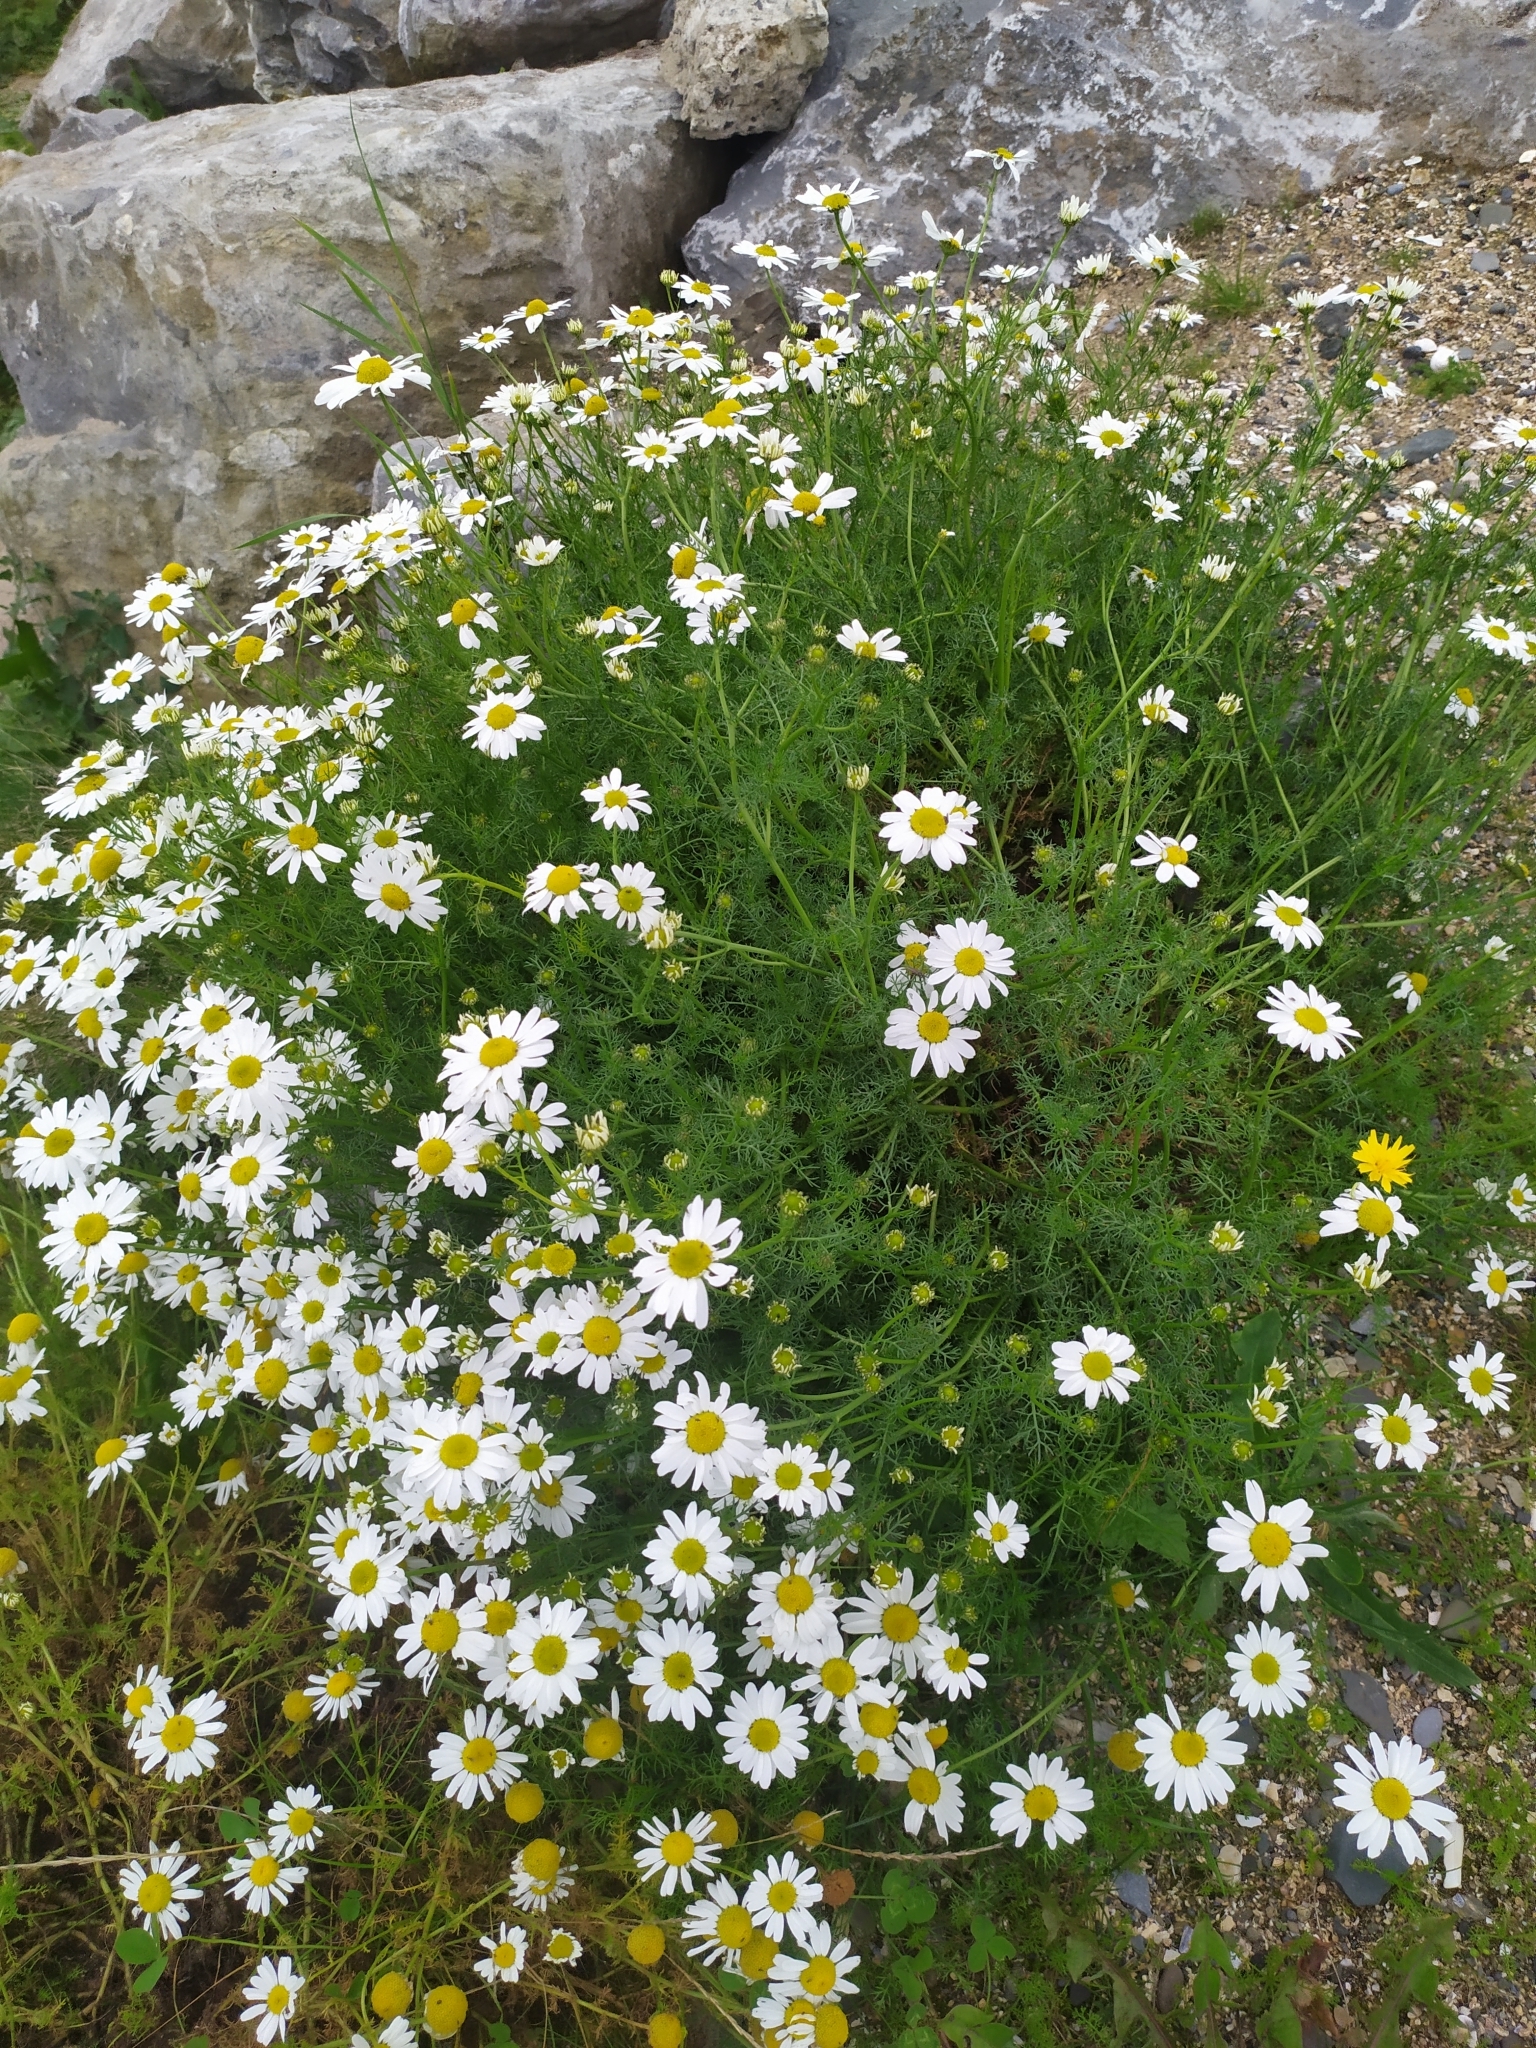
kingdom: Plantae
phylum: Tracheophyta
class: Magnoliopsida
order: Asterales
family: Asteraceae
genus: Tripleurospermum
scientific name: Tripleurospermum maritimum
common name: Sea mayweed
